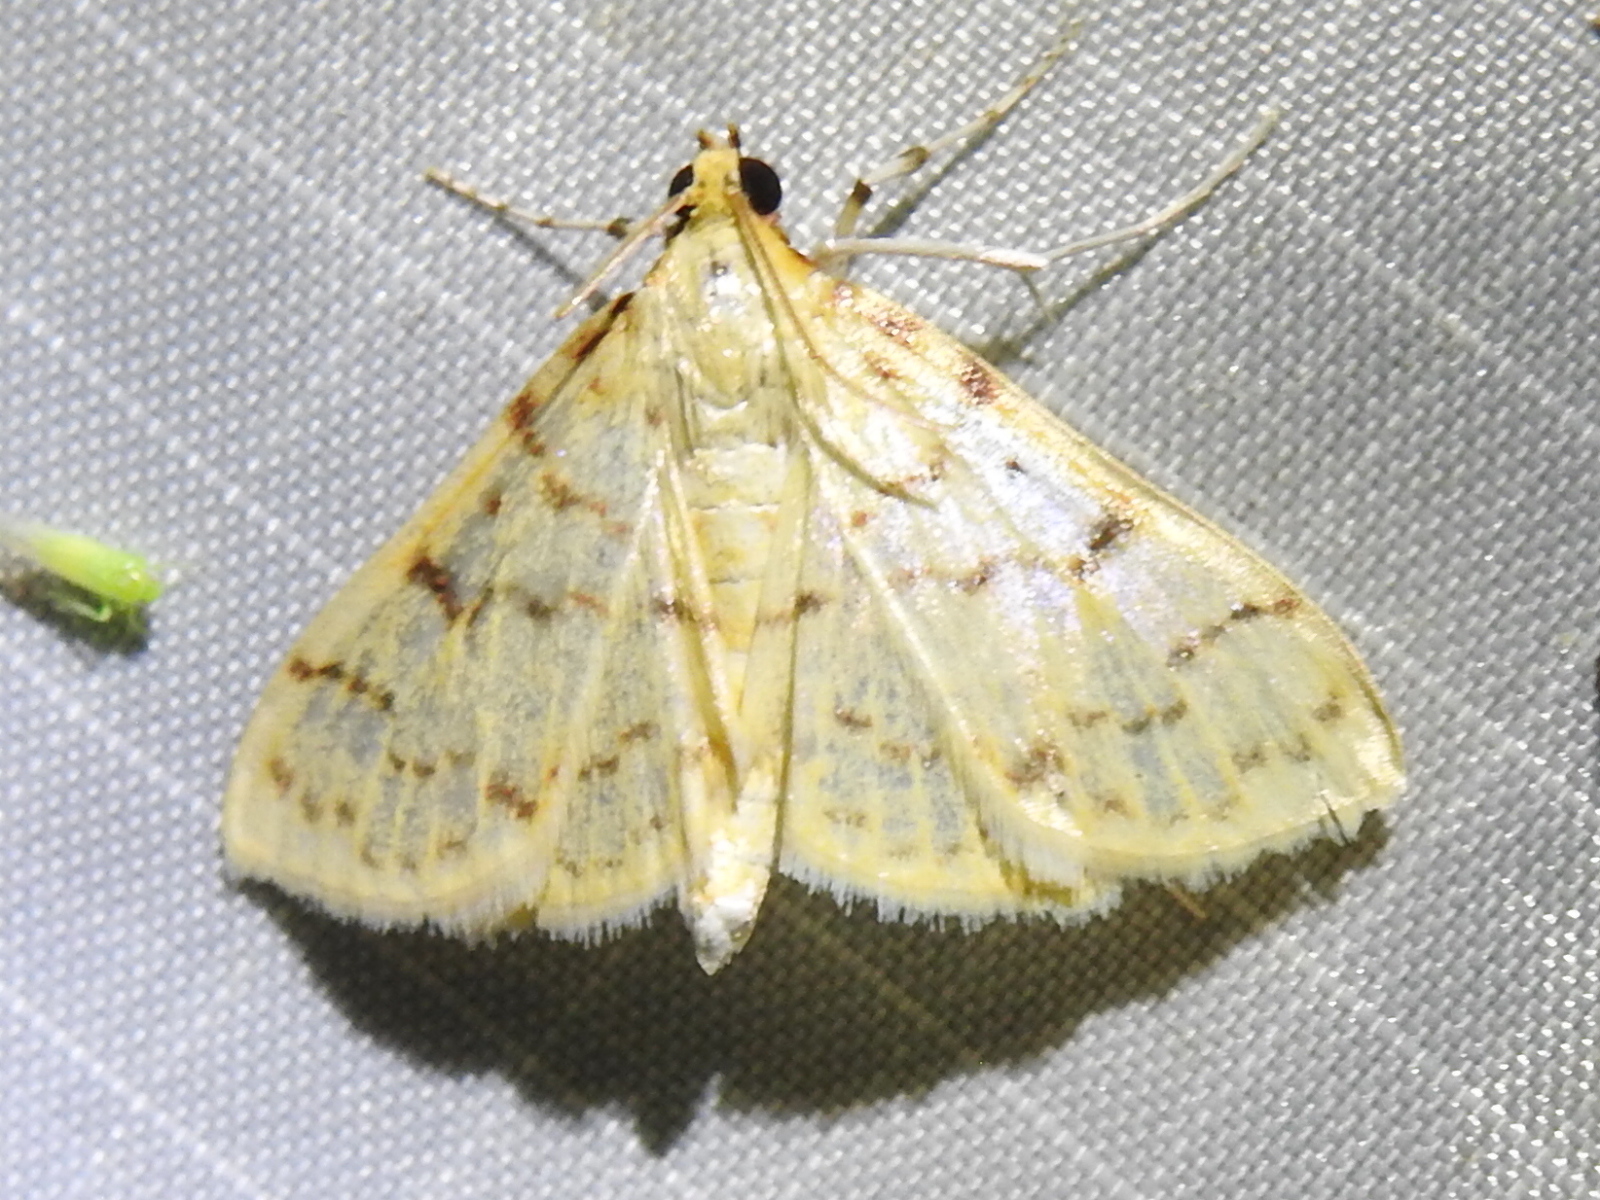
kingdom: Animalia
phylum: Arthropoda
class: Insecta
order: Lepidoptera
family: Crambidae
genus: Polygrammodes
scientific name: Polygrammodes flavidalis
